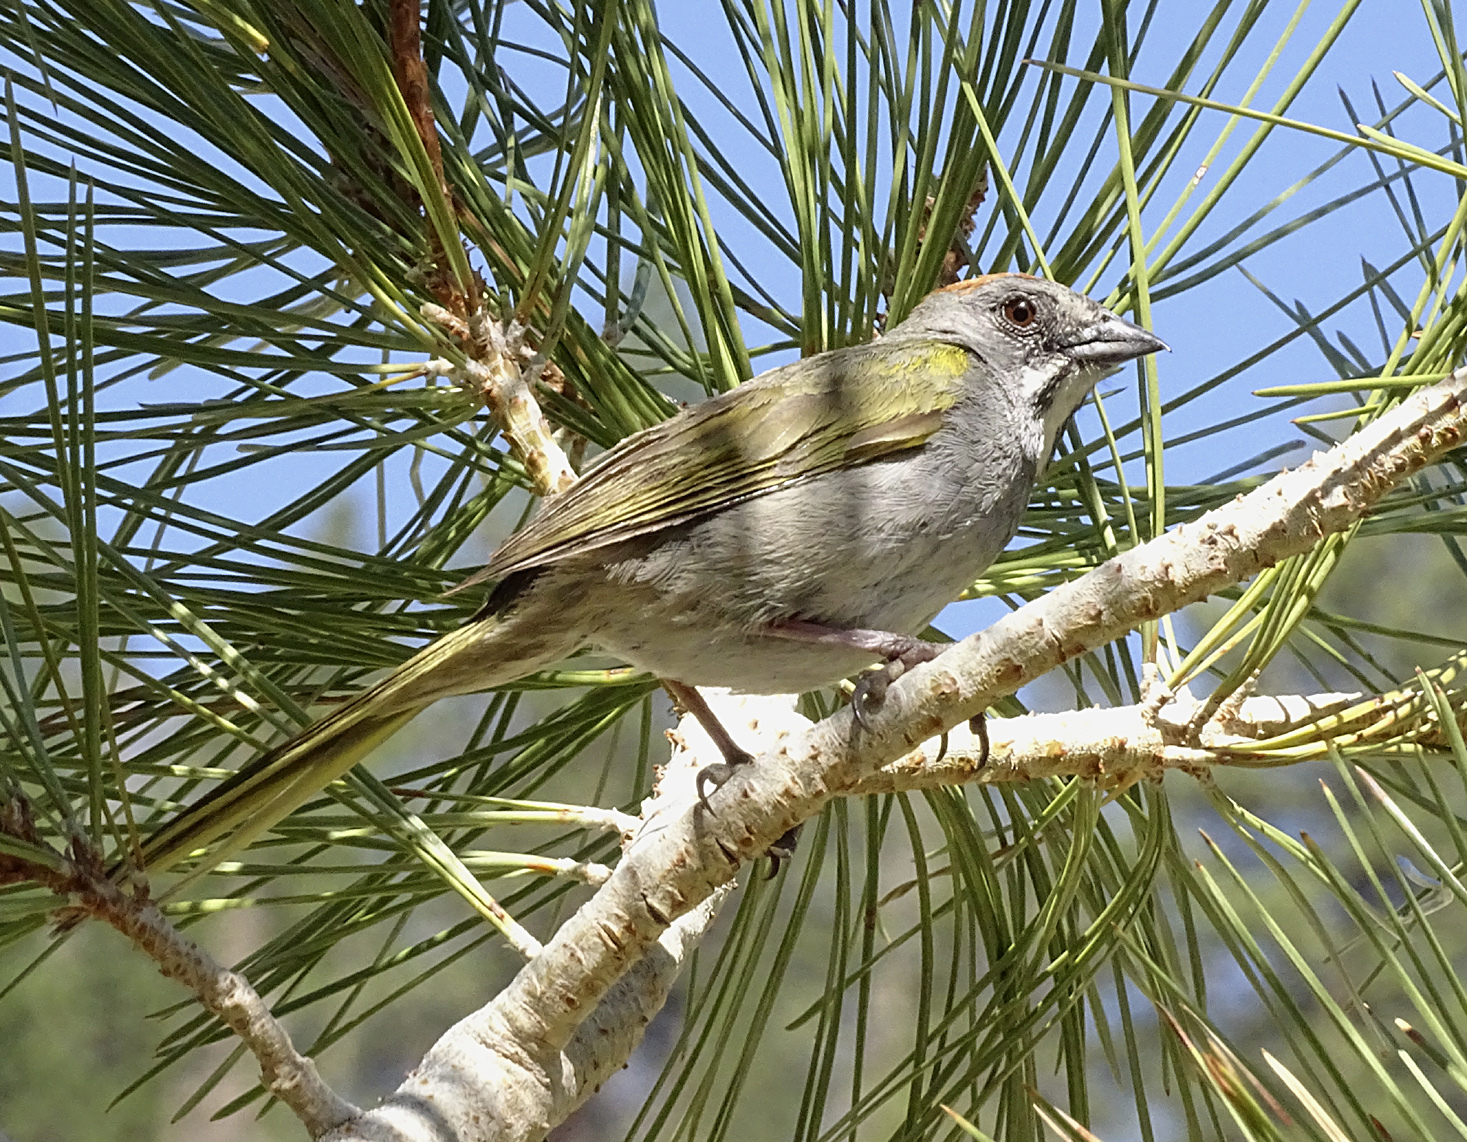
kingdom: Animalia
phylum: Chordata
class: Aves
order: Passeriformes
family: Passerellidae
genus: Pipilo
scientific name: Pipilo chlorurus
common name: Green-tailed towhee
